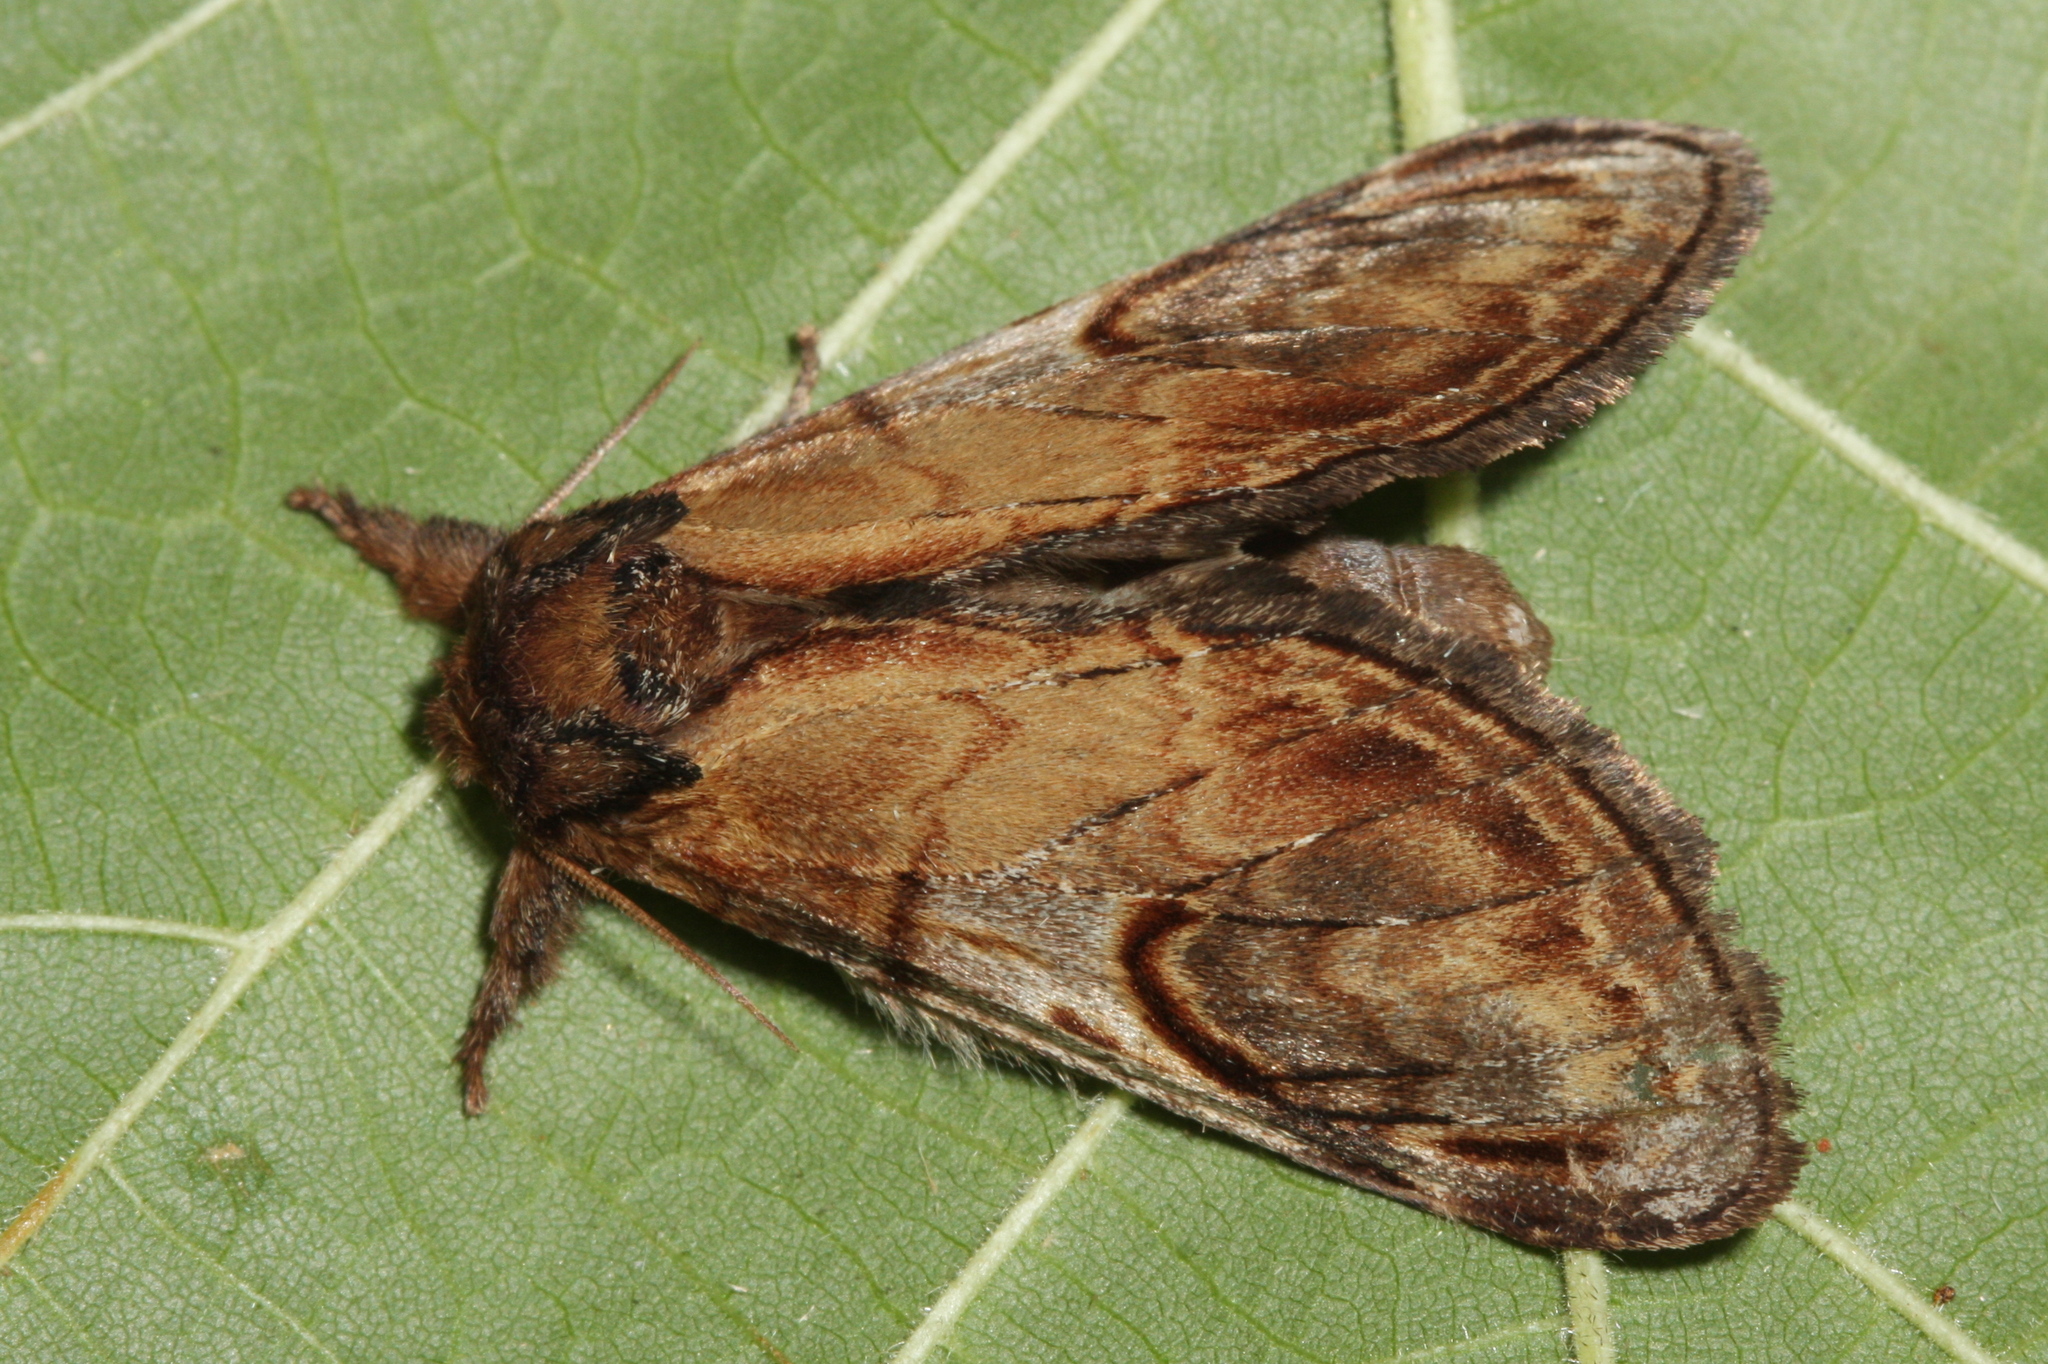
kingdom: Animalia
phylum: Arthropoda
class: Insecta
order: Lepidoptera
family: Notodontidae
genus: Notodonta
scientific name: Notodonta ziczac
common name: Pebble prominent
